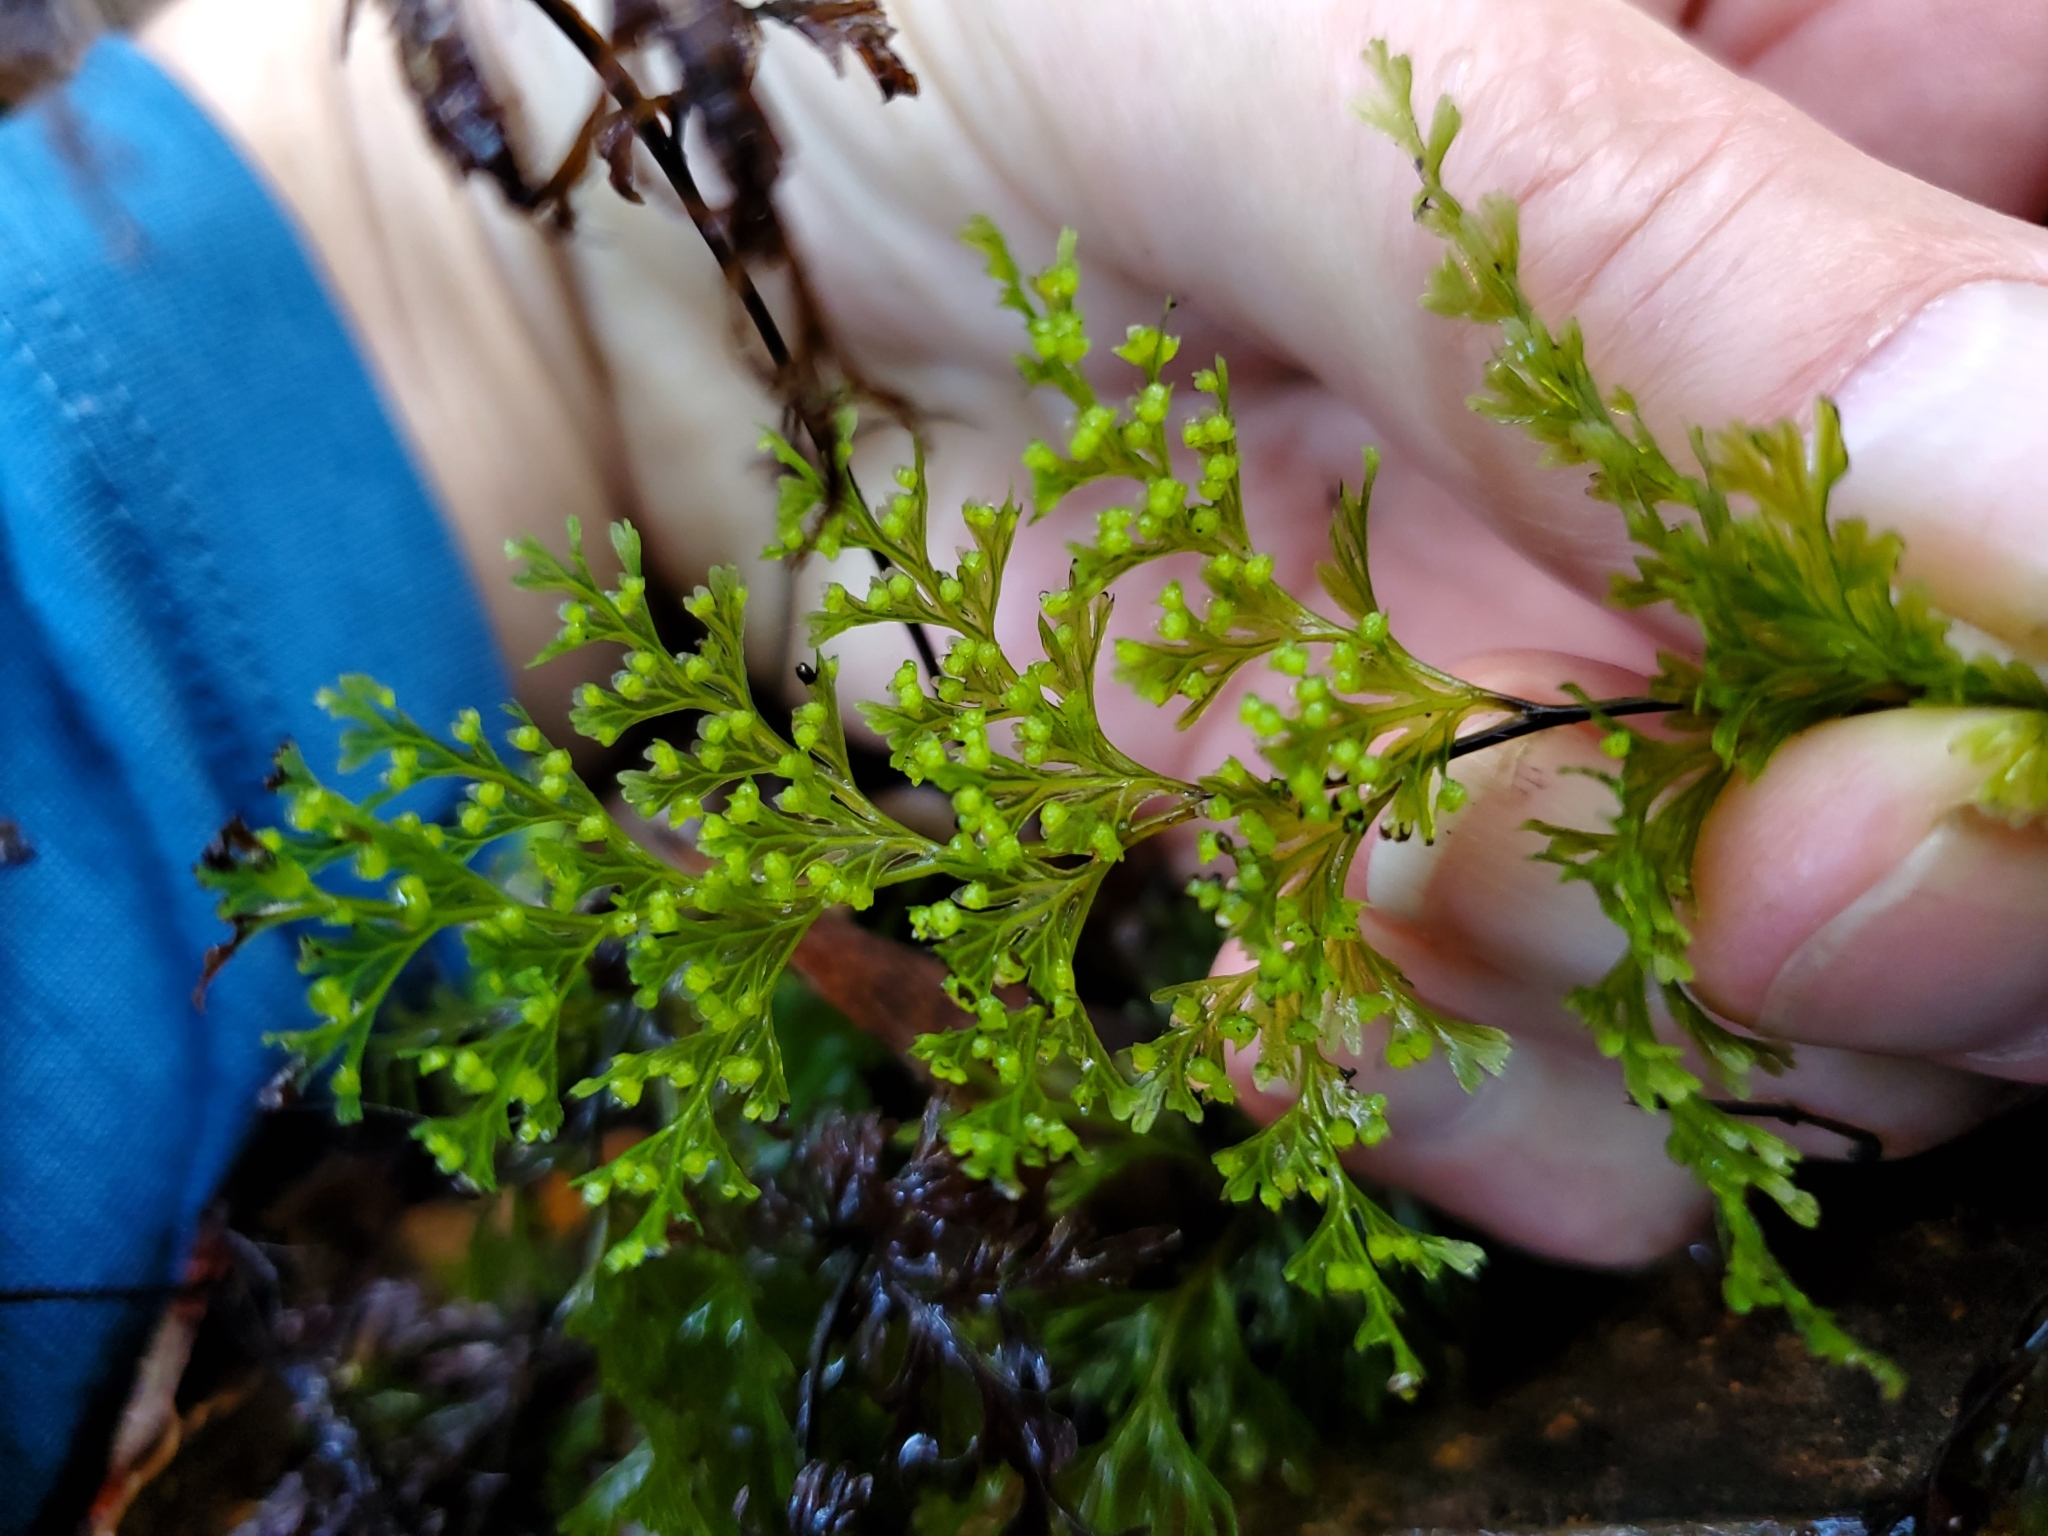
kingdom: Plantae
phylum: Tracheophyta
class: Polypodiopsida
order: Hymenophyllales
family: Hymenophyllaceae
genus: Hymenophyllum
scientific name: Hymenophyllum demissum
